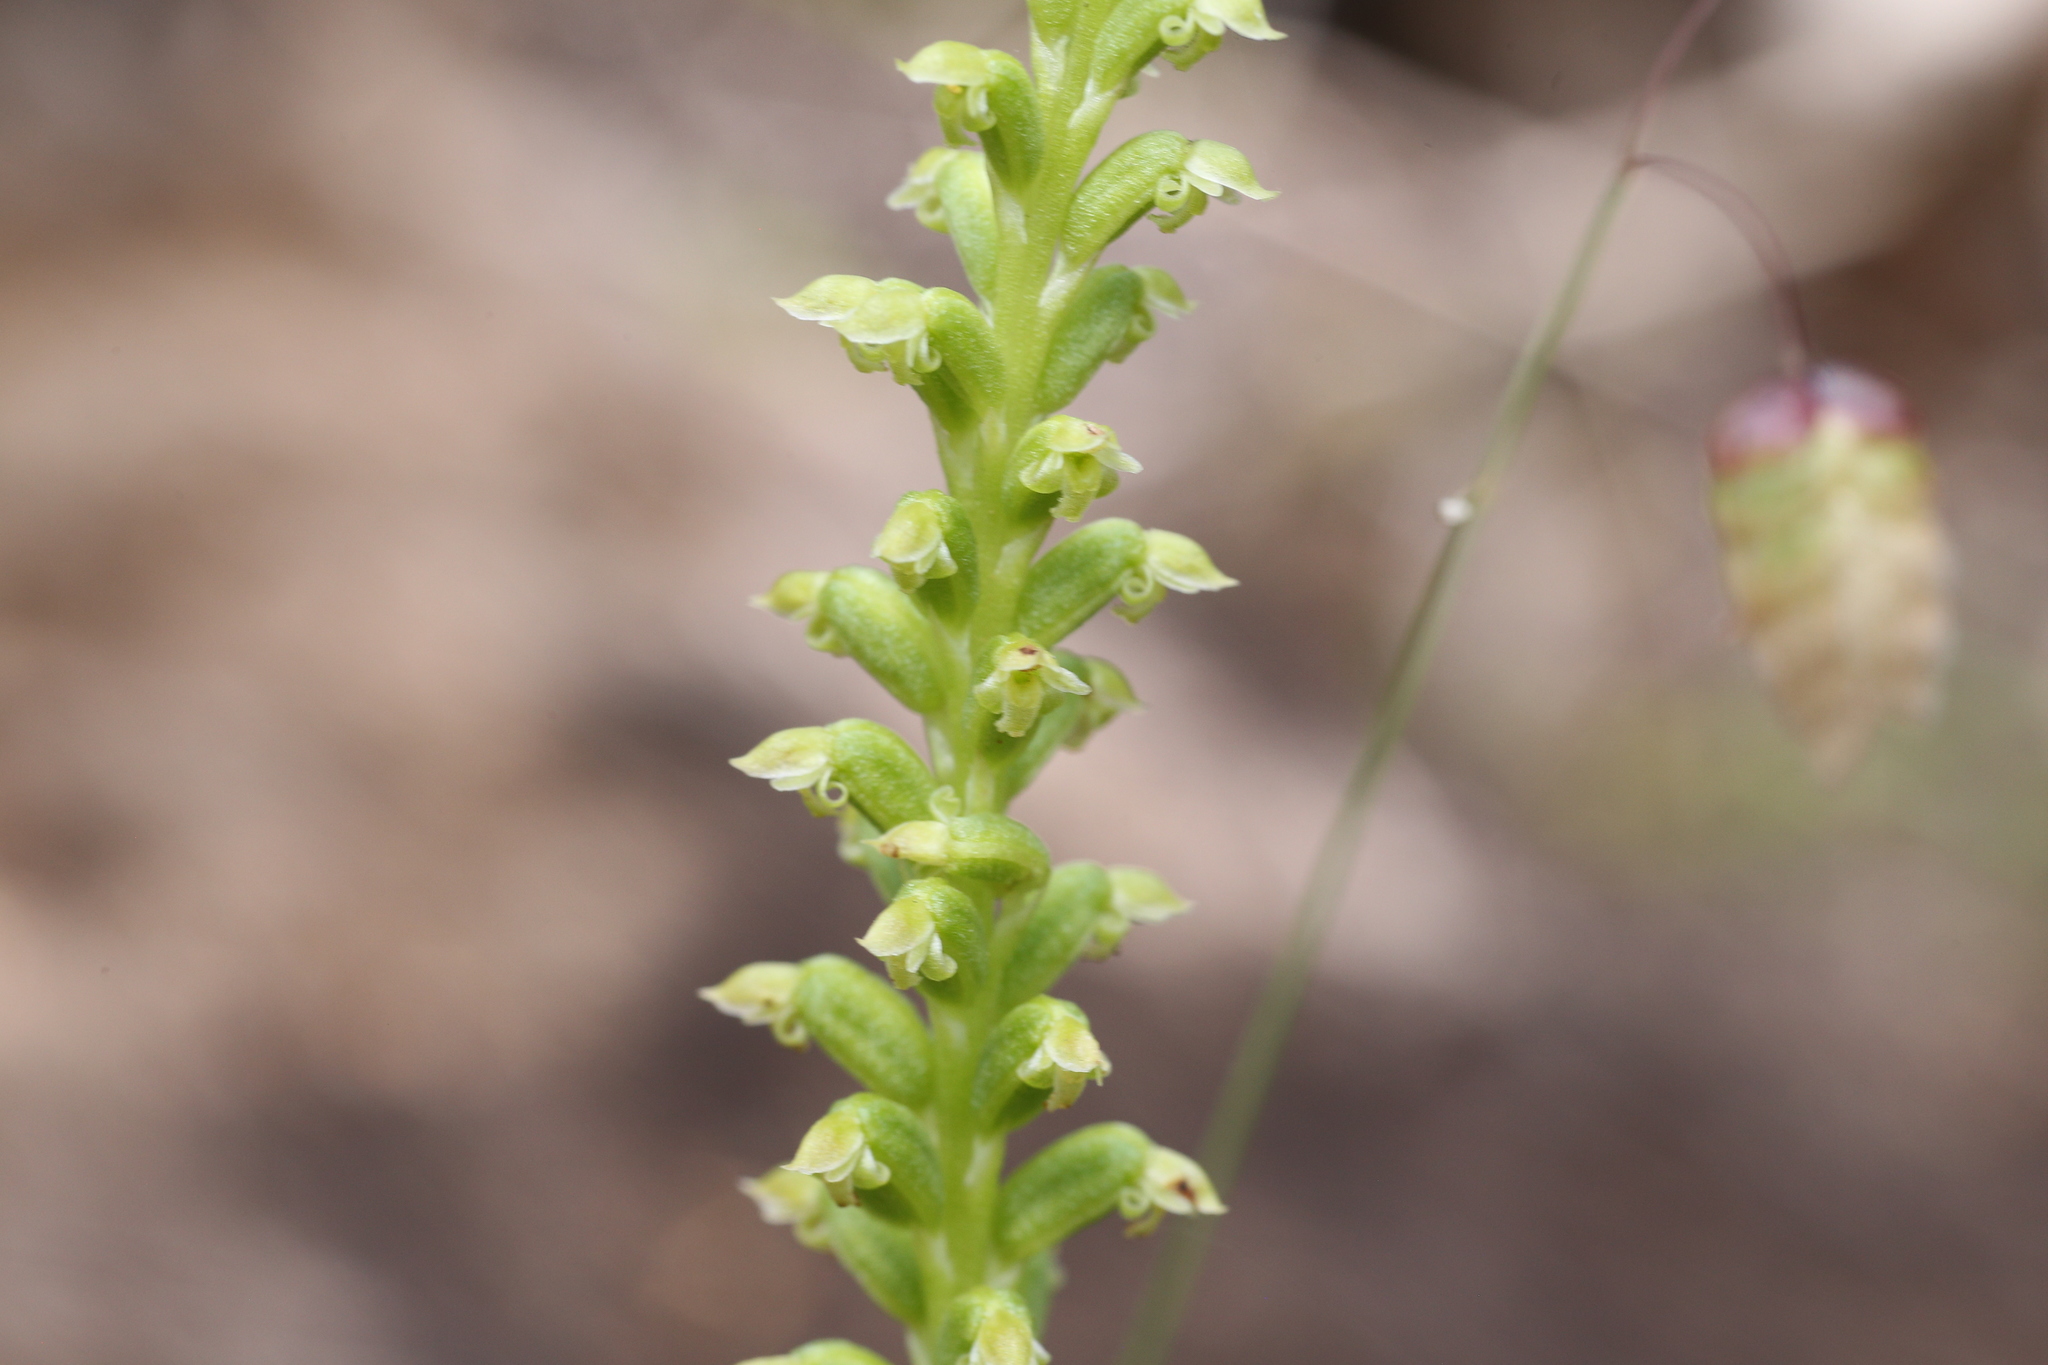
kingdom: Plantae
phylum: Tracheophyta
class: Liliopsida
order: Asparagales
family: Orchidaceae
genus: Microtis
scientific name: Microtis media
